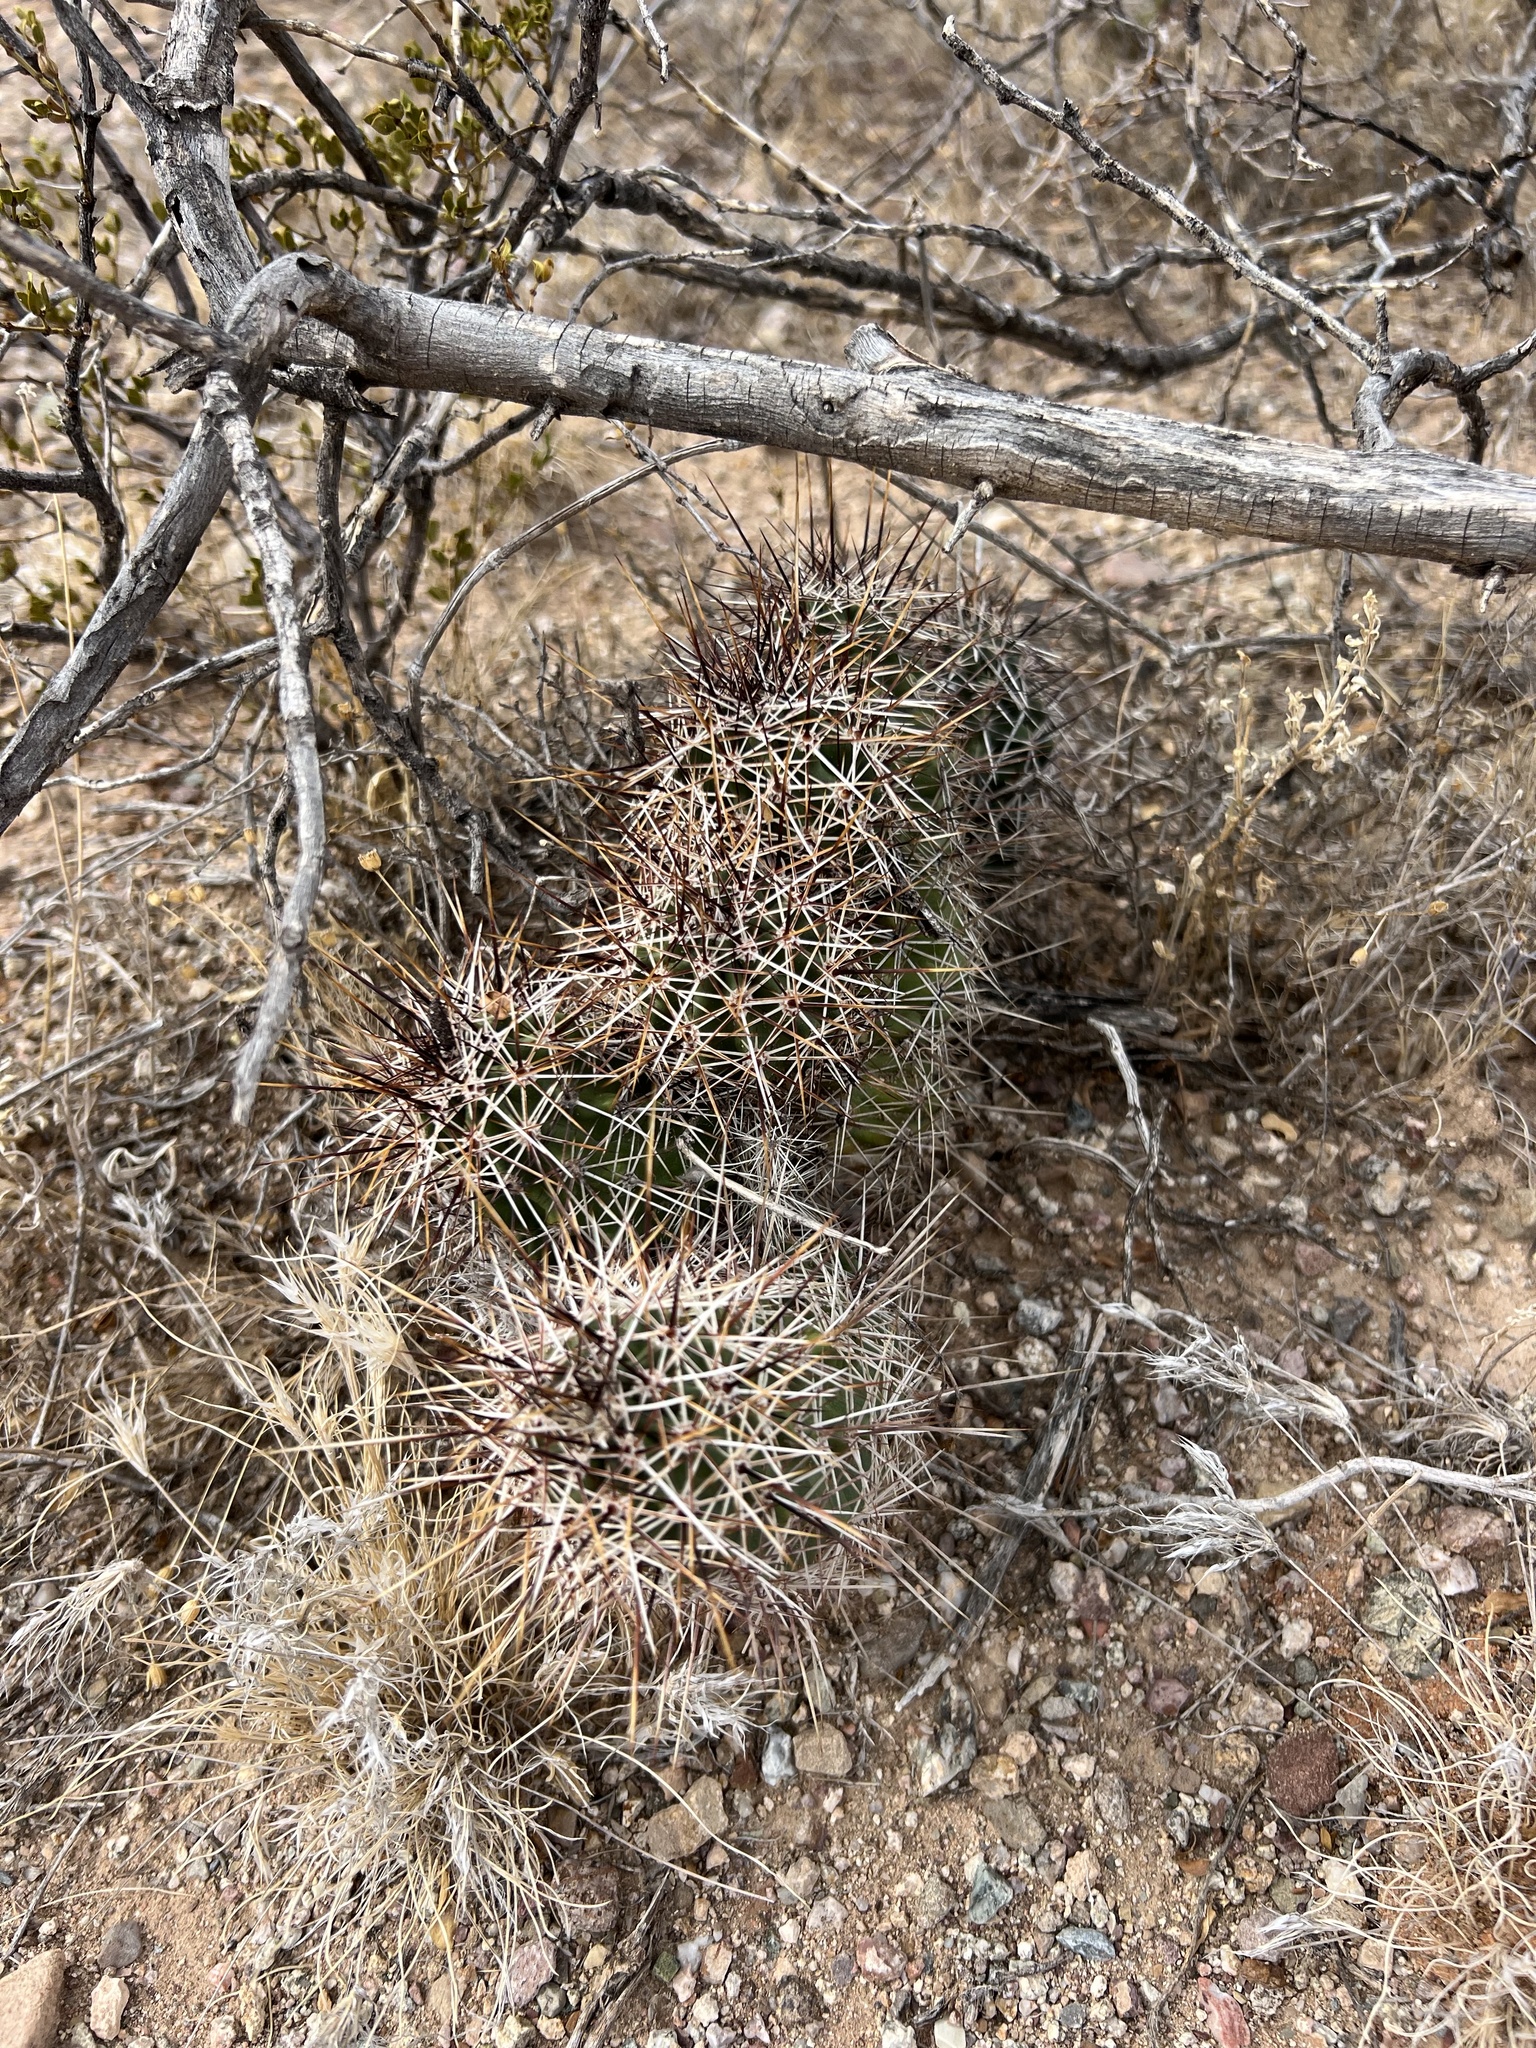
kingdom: Plantae
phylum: Tracheophyta
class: Magnoliopsida
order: Caryophyllales
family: Cactaceae
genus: Echinocereus
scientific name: Echinocereus fasciculatus
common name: Bundle hedgehog
